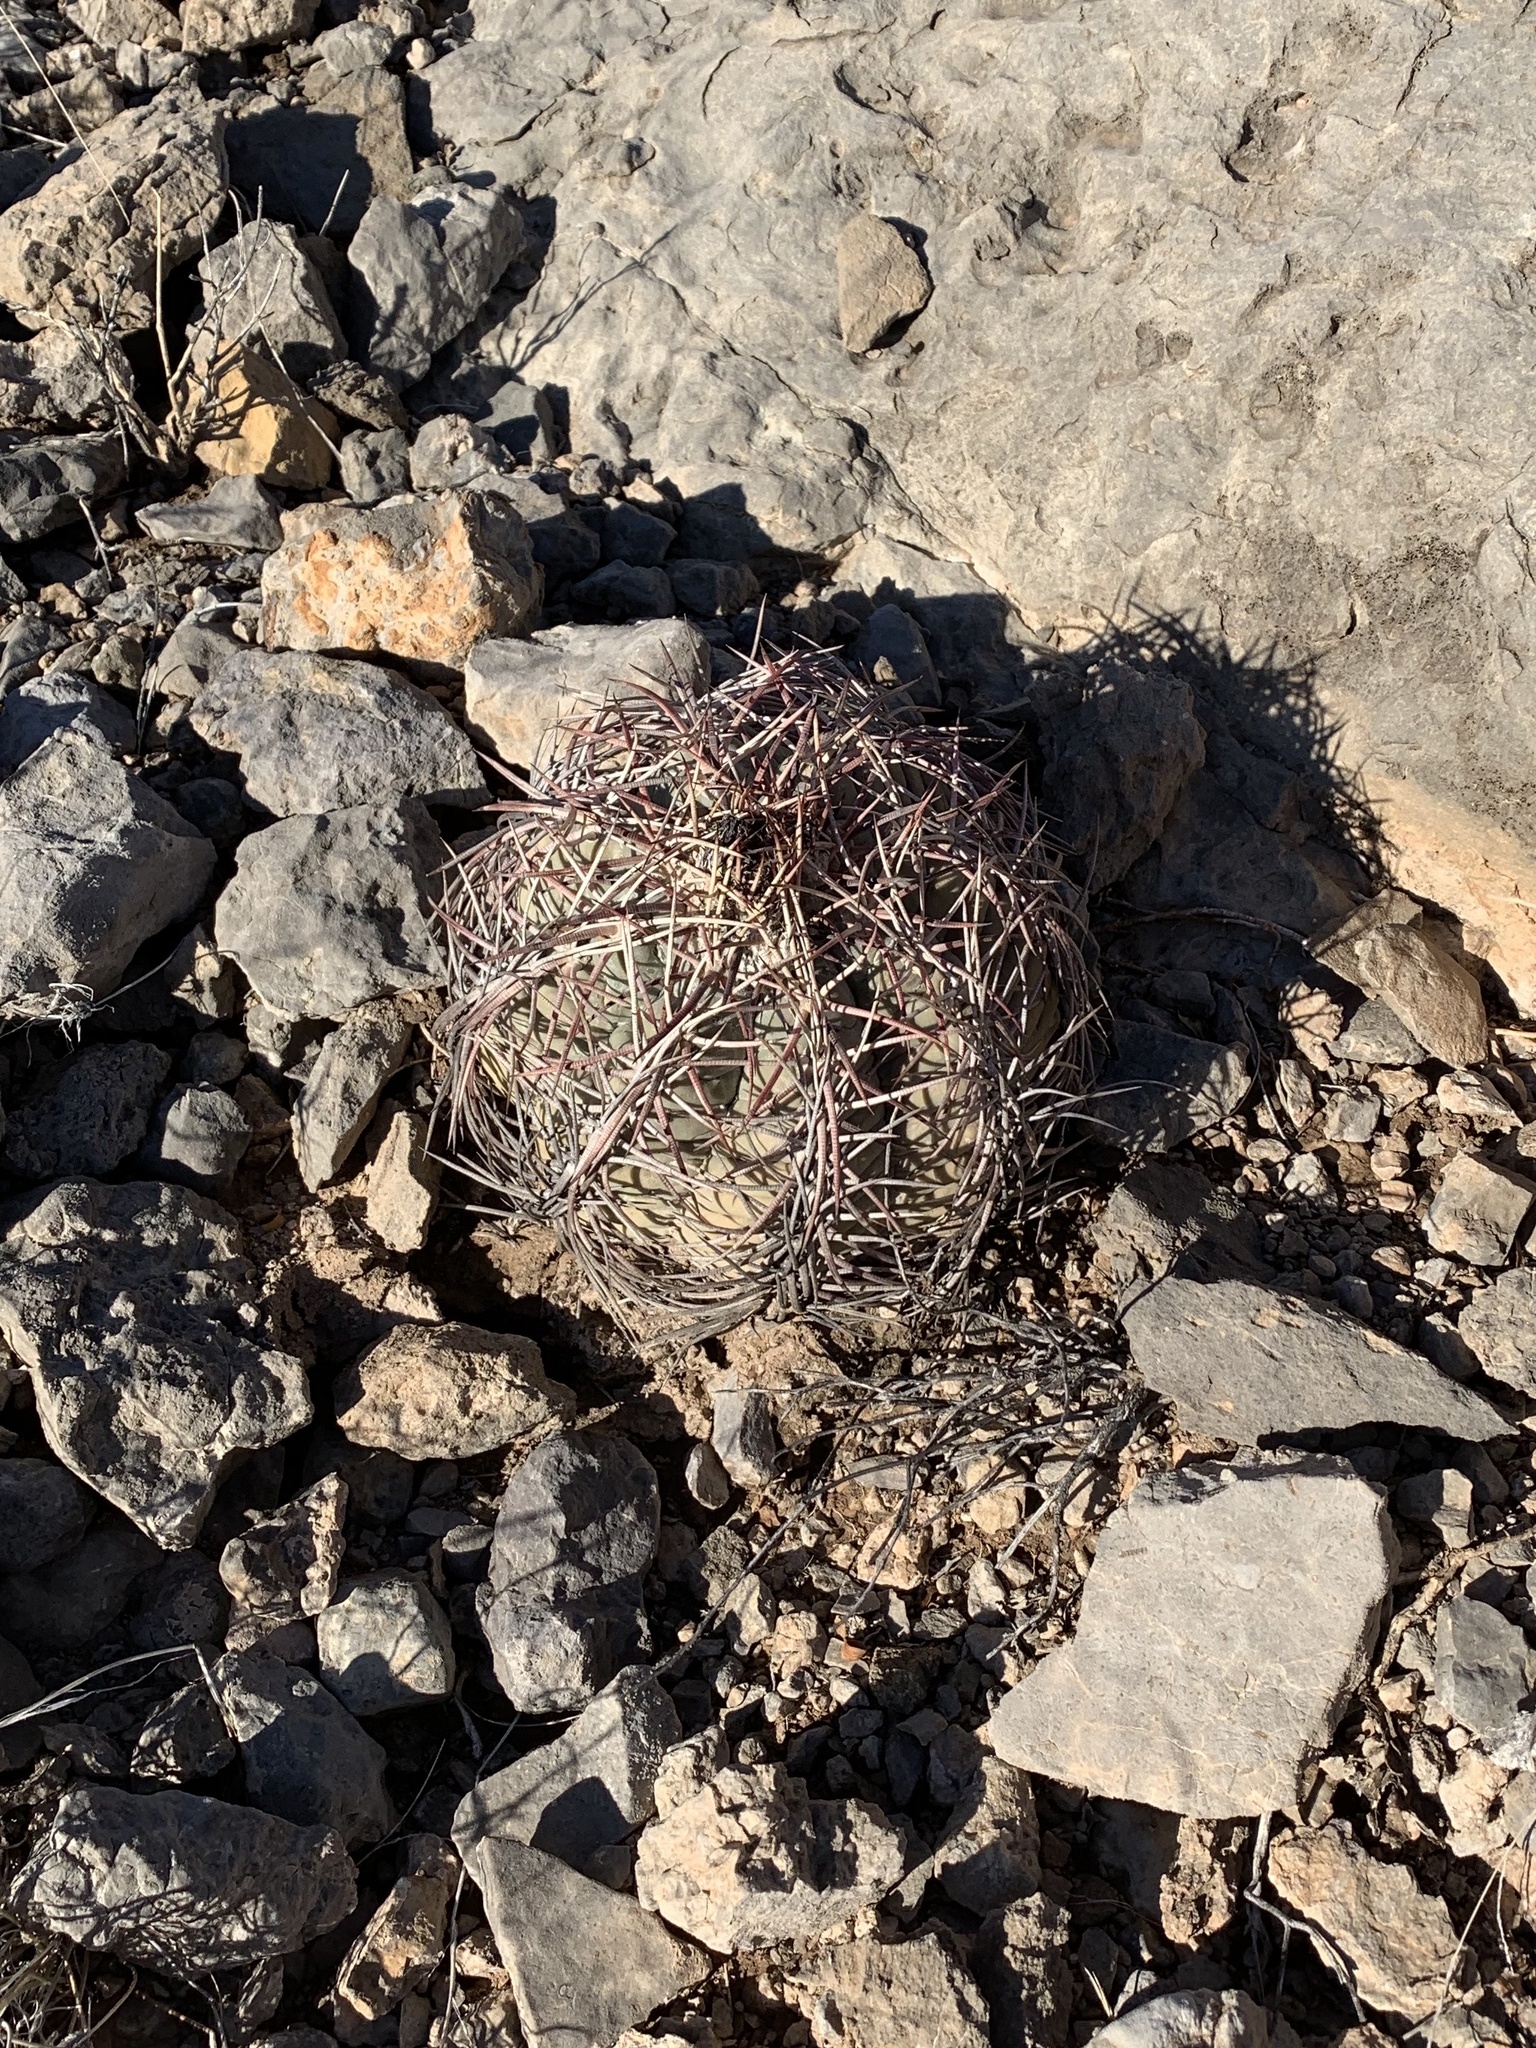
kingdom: Plantae
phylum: Tracheophyta
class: Magnoliopsida
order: Caryophyllales
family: Cactaceae
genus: Echinocactus
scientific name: Echinocactus horizonthalonius
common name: Devilshead
